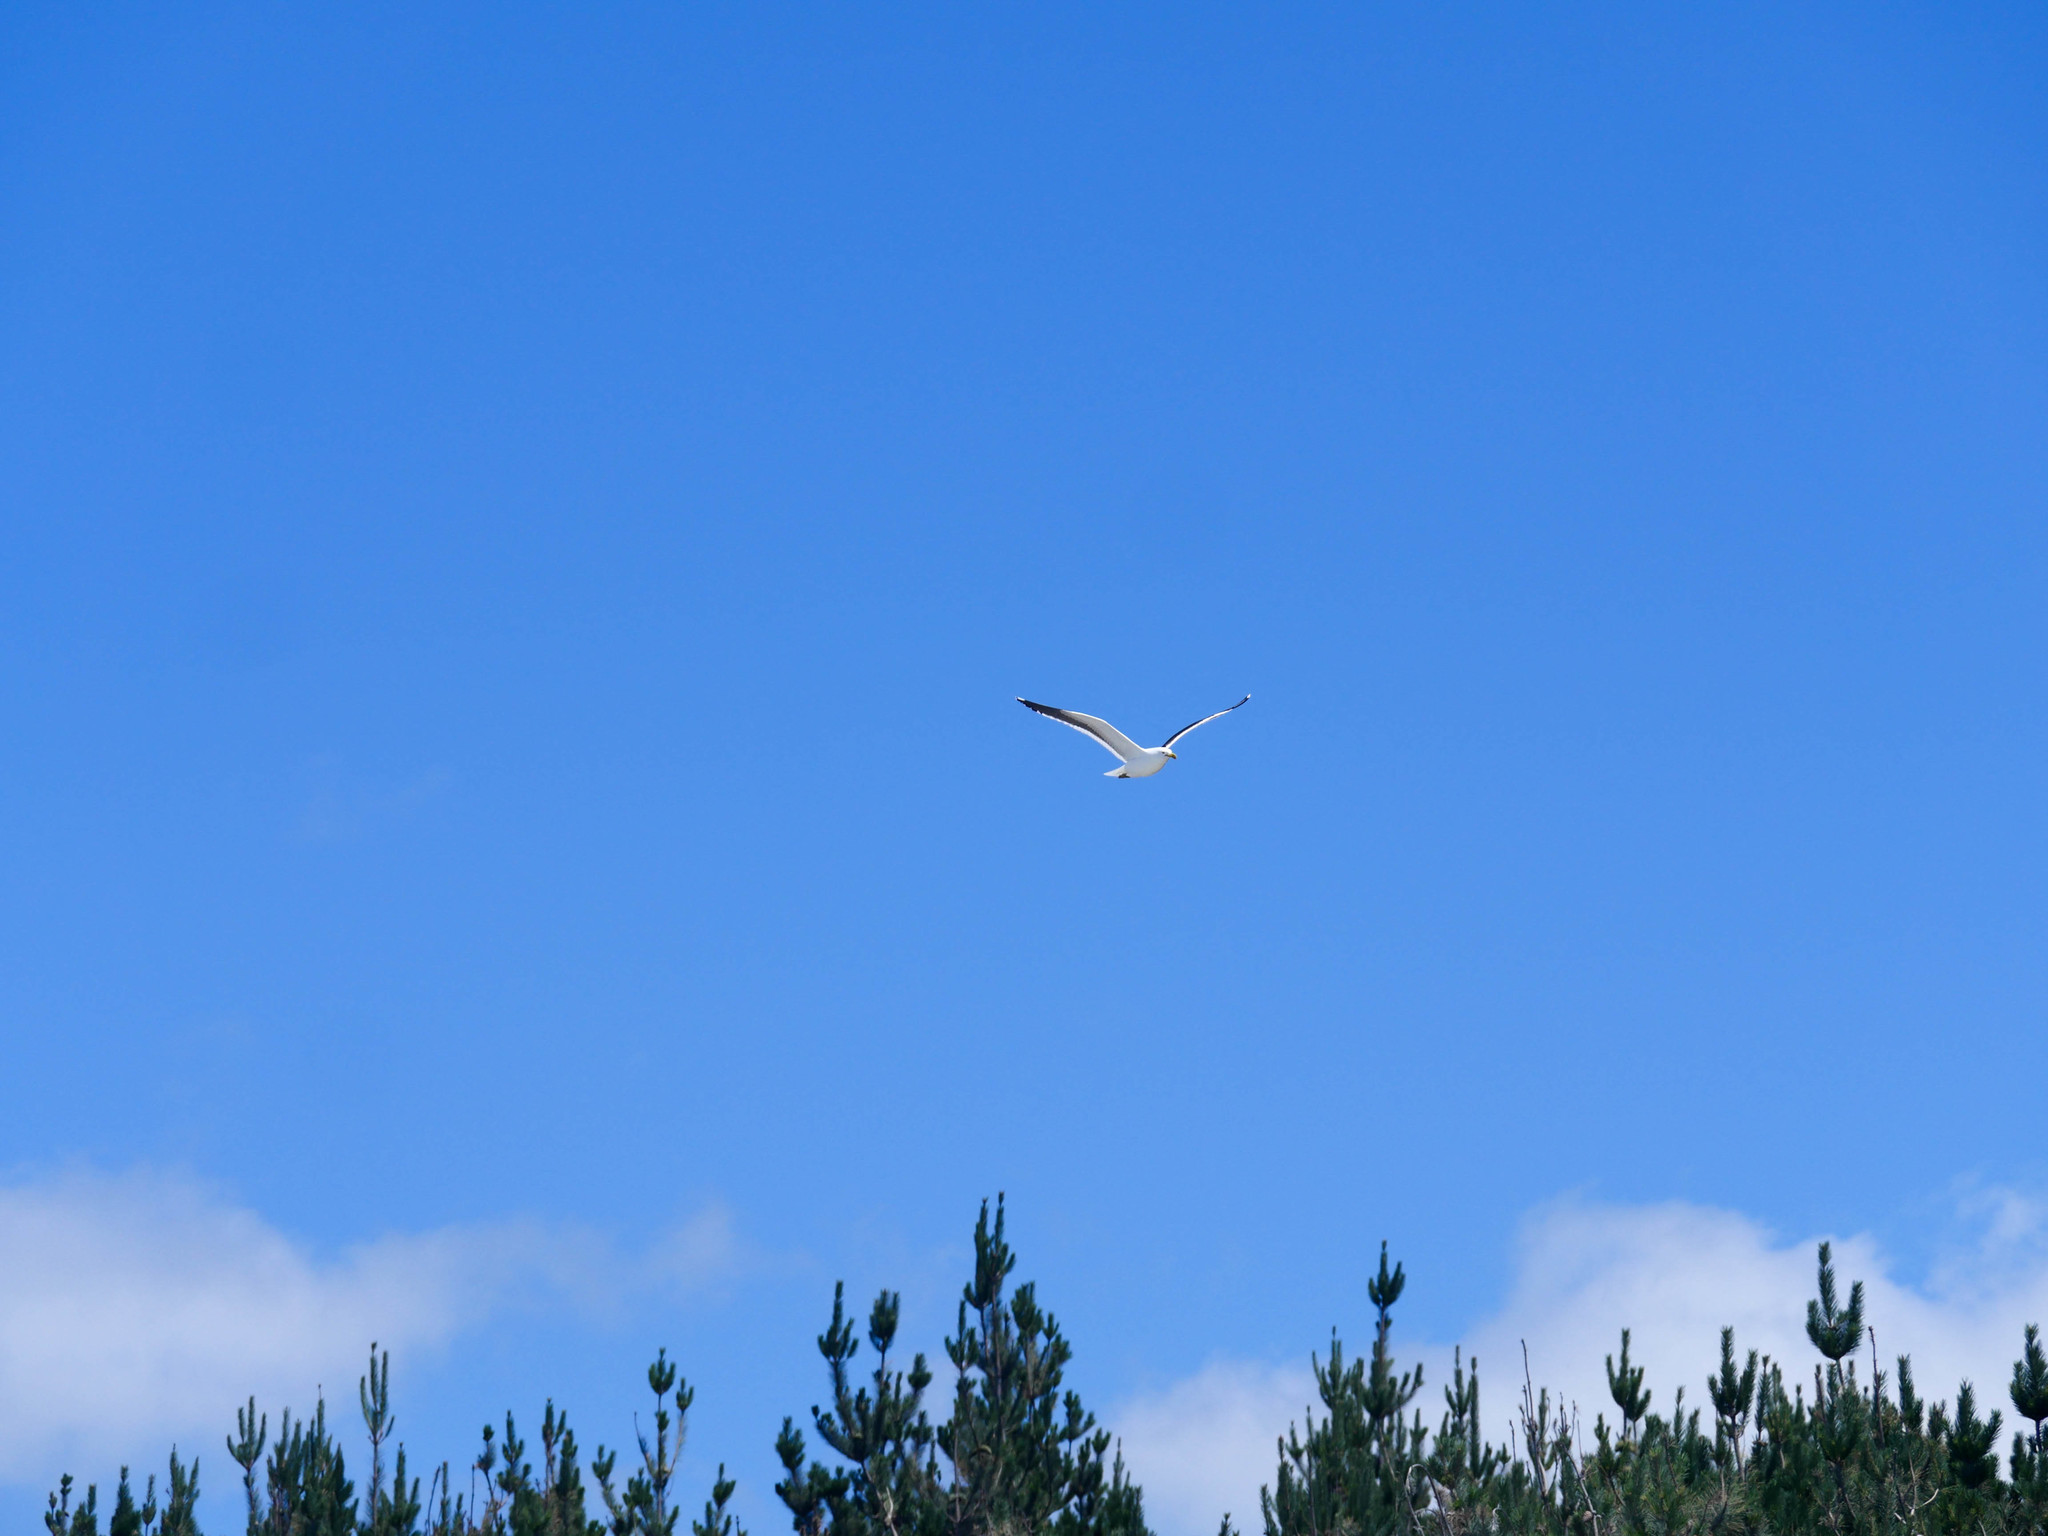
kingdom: Animalia
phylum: Chordata
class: Aves
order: Charadriiformes
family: Laridae
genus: Larus
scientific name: Larus dominicanus
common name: Kelp gull
